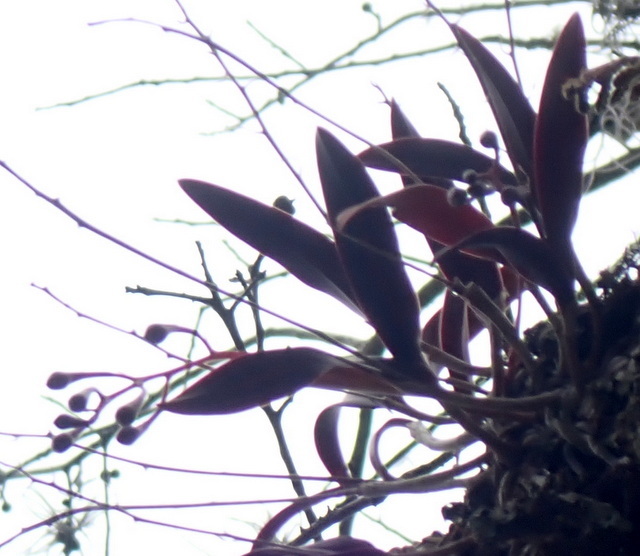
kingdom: Plantae
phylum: Tracheophyta
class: Liliopsida
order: Asparagales
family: Orchidaceae
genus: Epidendrum
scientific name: Epidendrum conopseum
